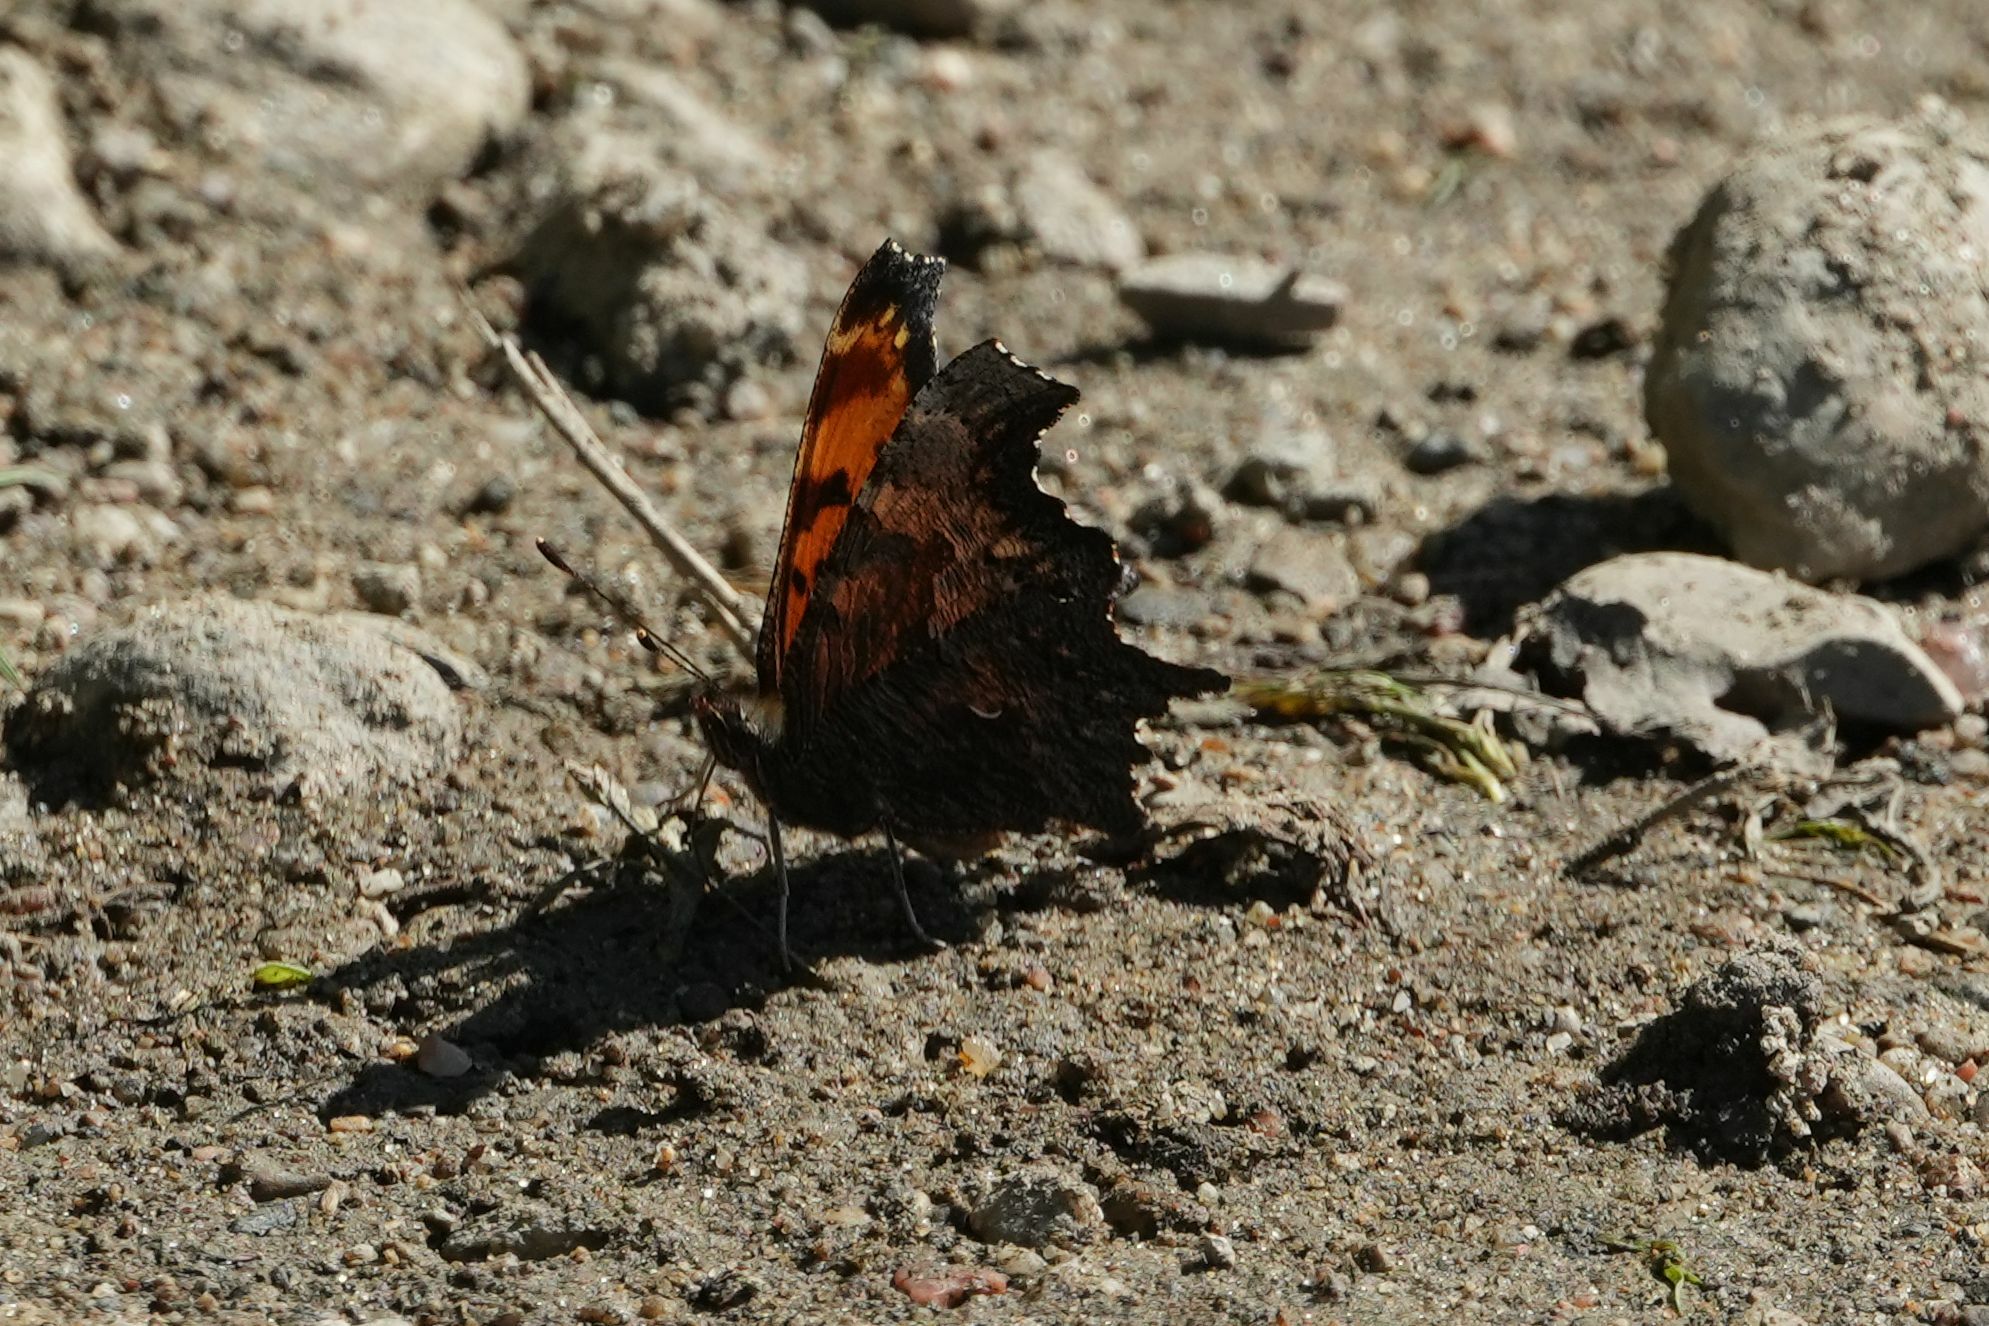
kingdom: Animalia
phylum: Arthropoda
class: Insecta
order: Lepidoptera
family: Nymphalidae
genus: Polygonia
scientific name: Polygonia progne
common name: Gray comma
